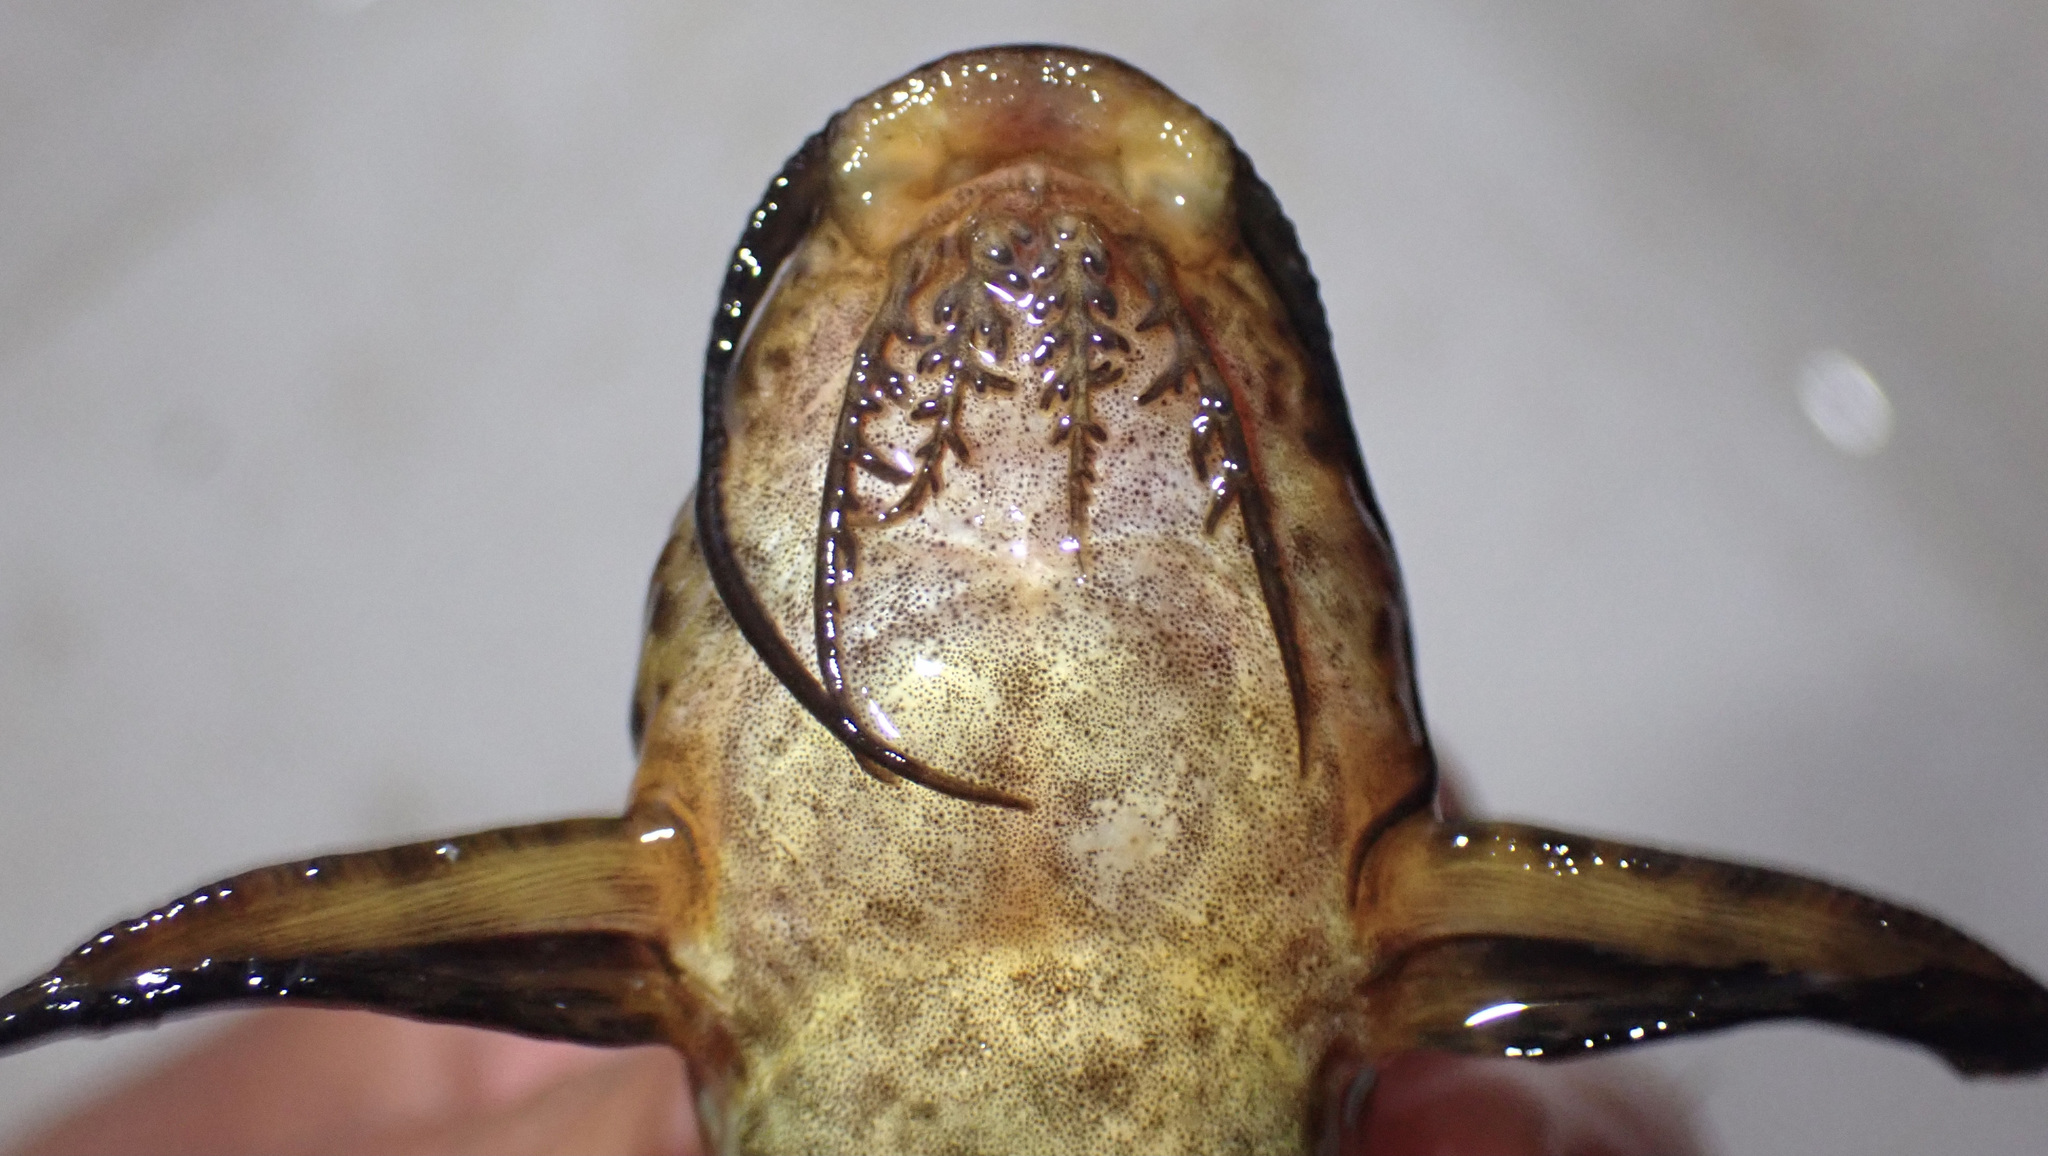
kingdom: Animalia
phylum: Chordata
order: Siluriformes
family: Mochokidae
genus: Synodontis
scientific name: Synodontis macrostigma
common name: Largespot squeaker
